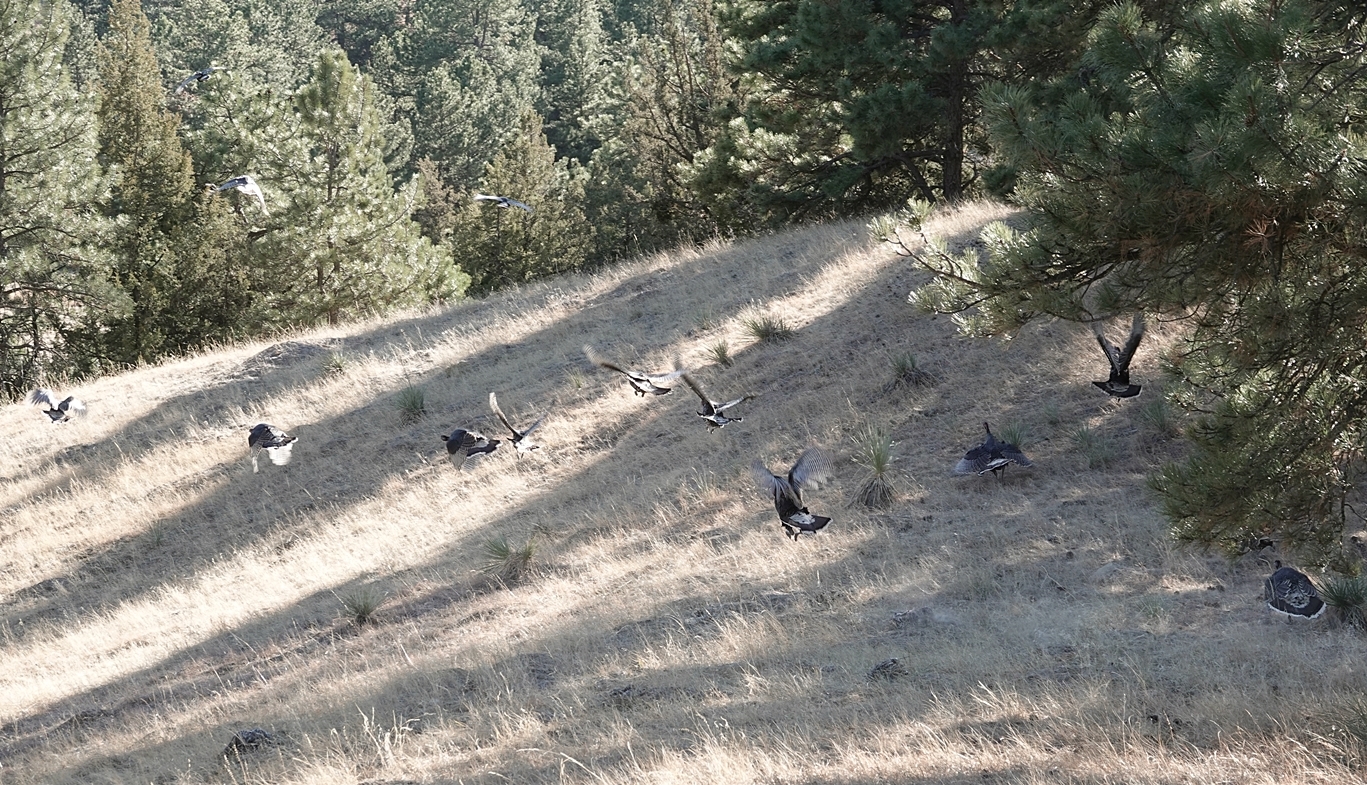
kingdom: Animalia
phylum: Chordata
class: Aves
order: Galliformes
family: Phasianidae
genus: Meleagris
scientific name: Meleagris gallopavo
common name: Wild turkey
